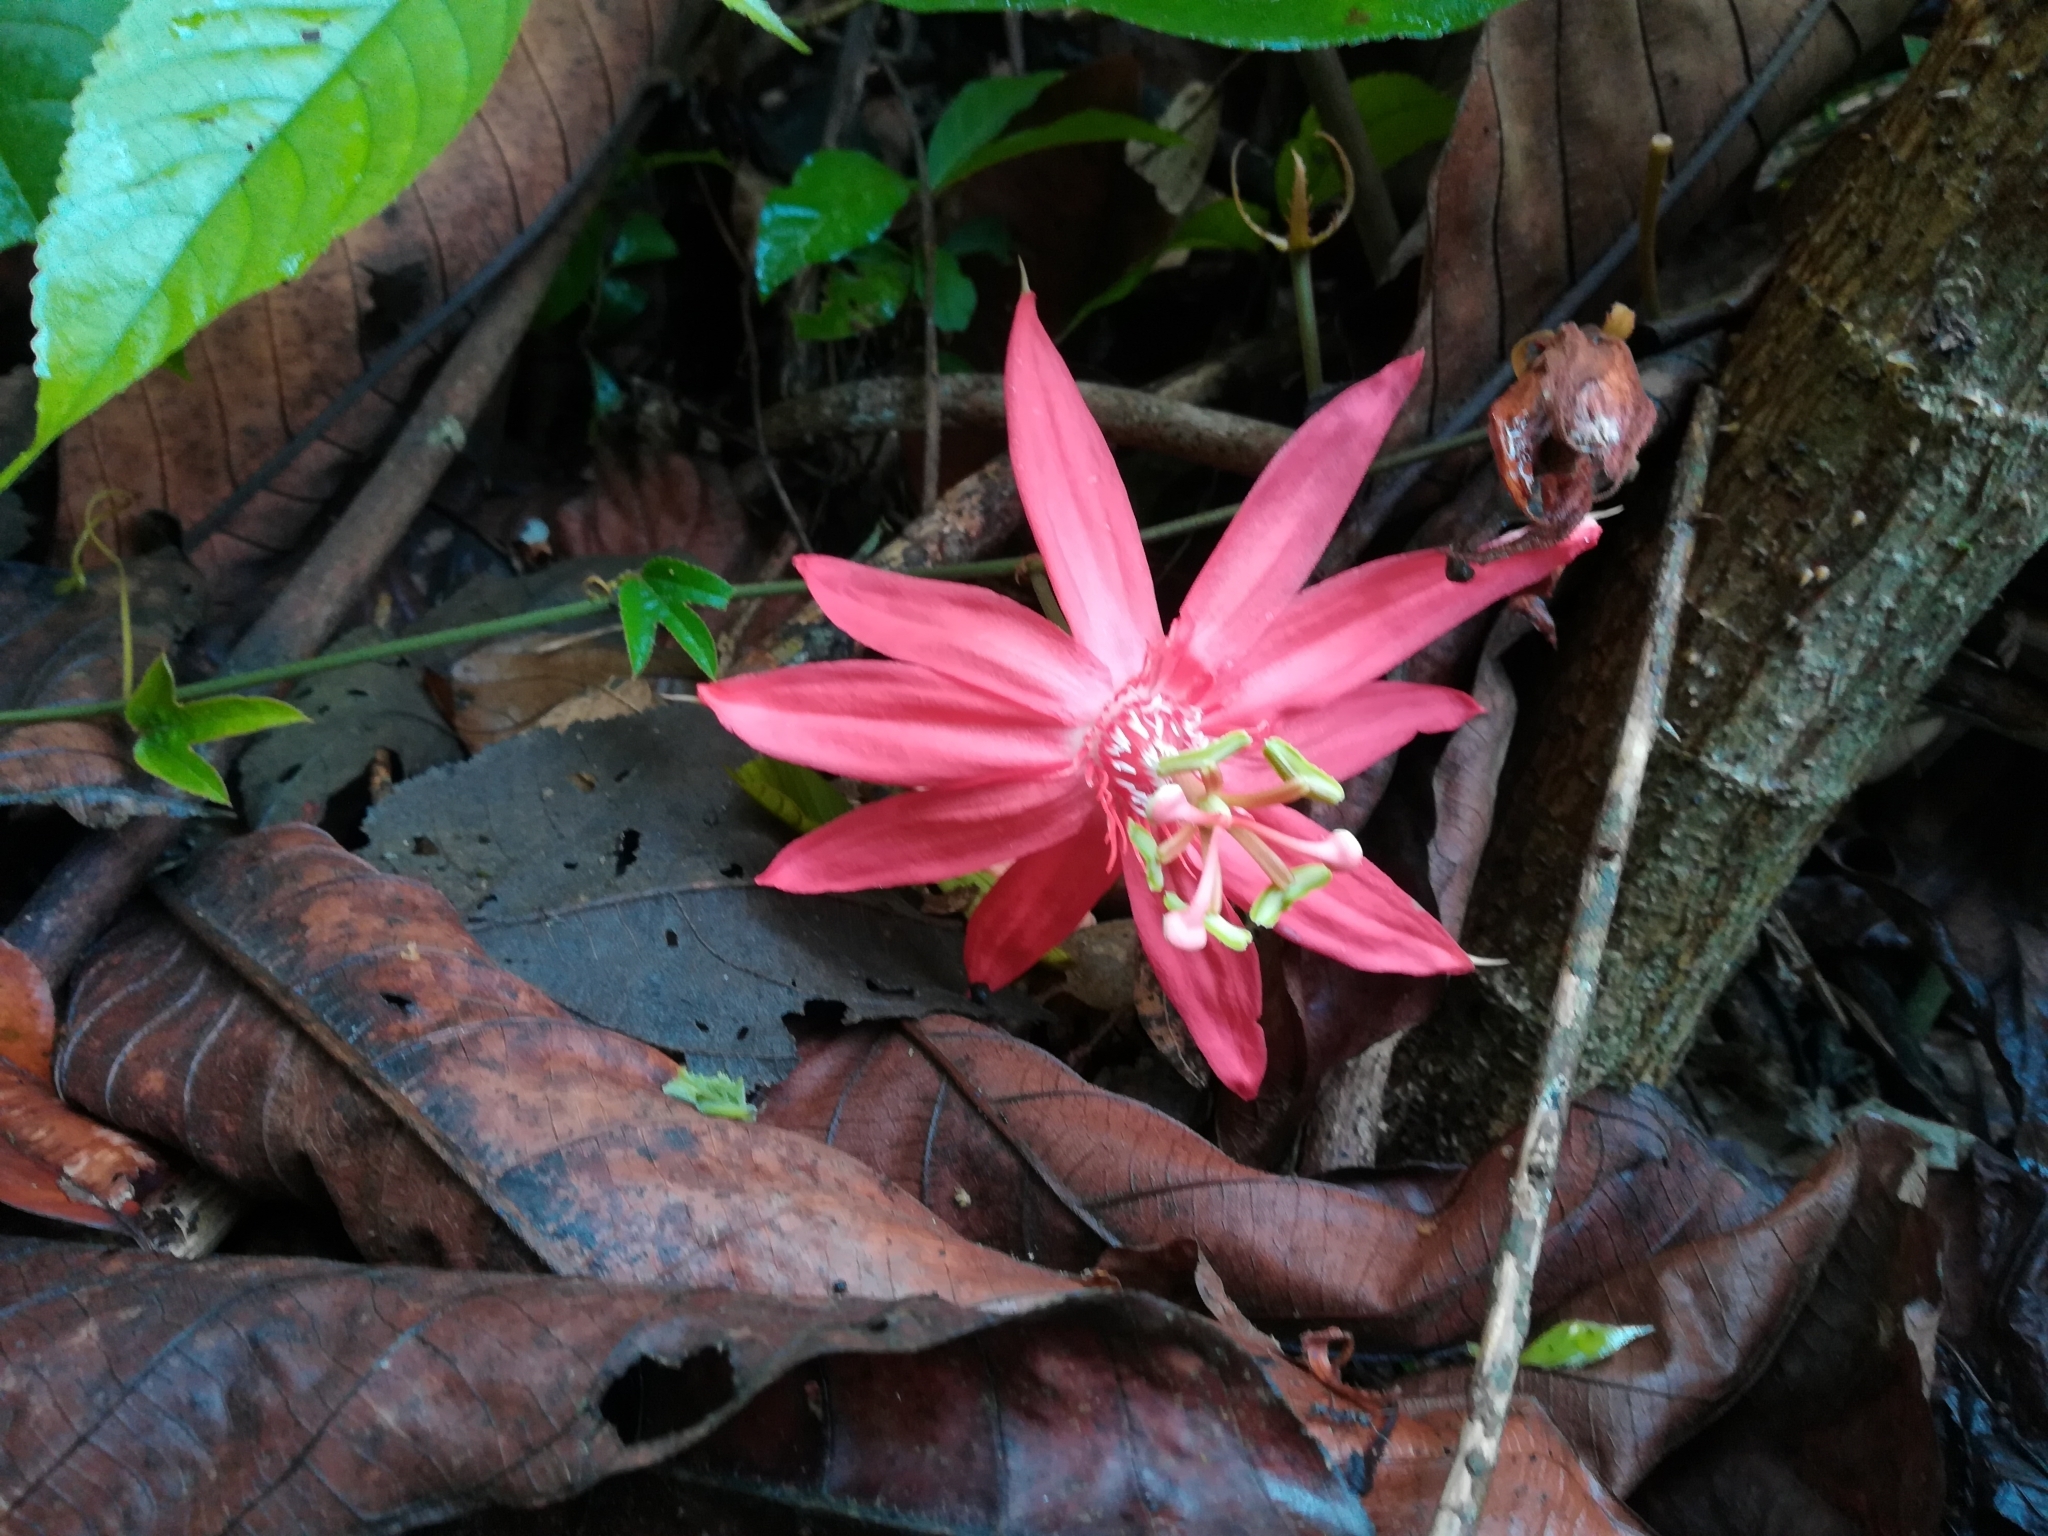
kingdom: Plantae
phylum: Tracheophyta
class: Magnoliopsida
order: Malpighiales
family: Passifloraceae
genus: Passiflora
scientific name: Passiflora vitifolia
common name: Perfumed passionflower
